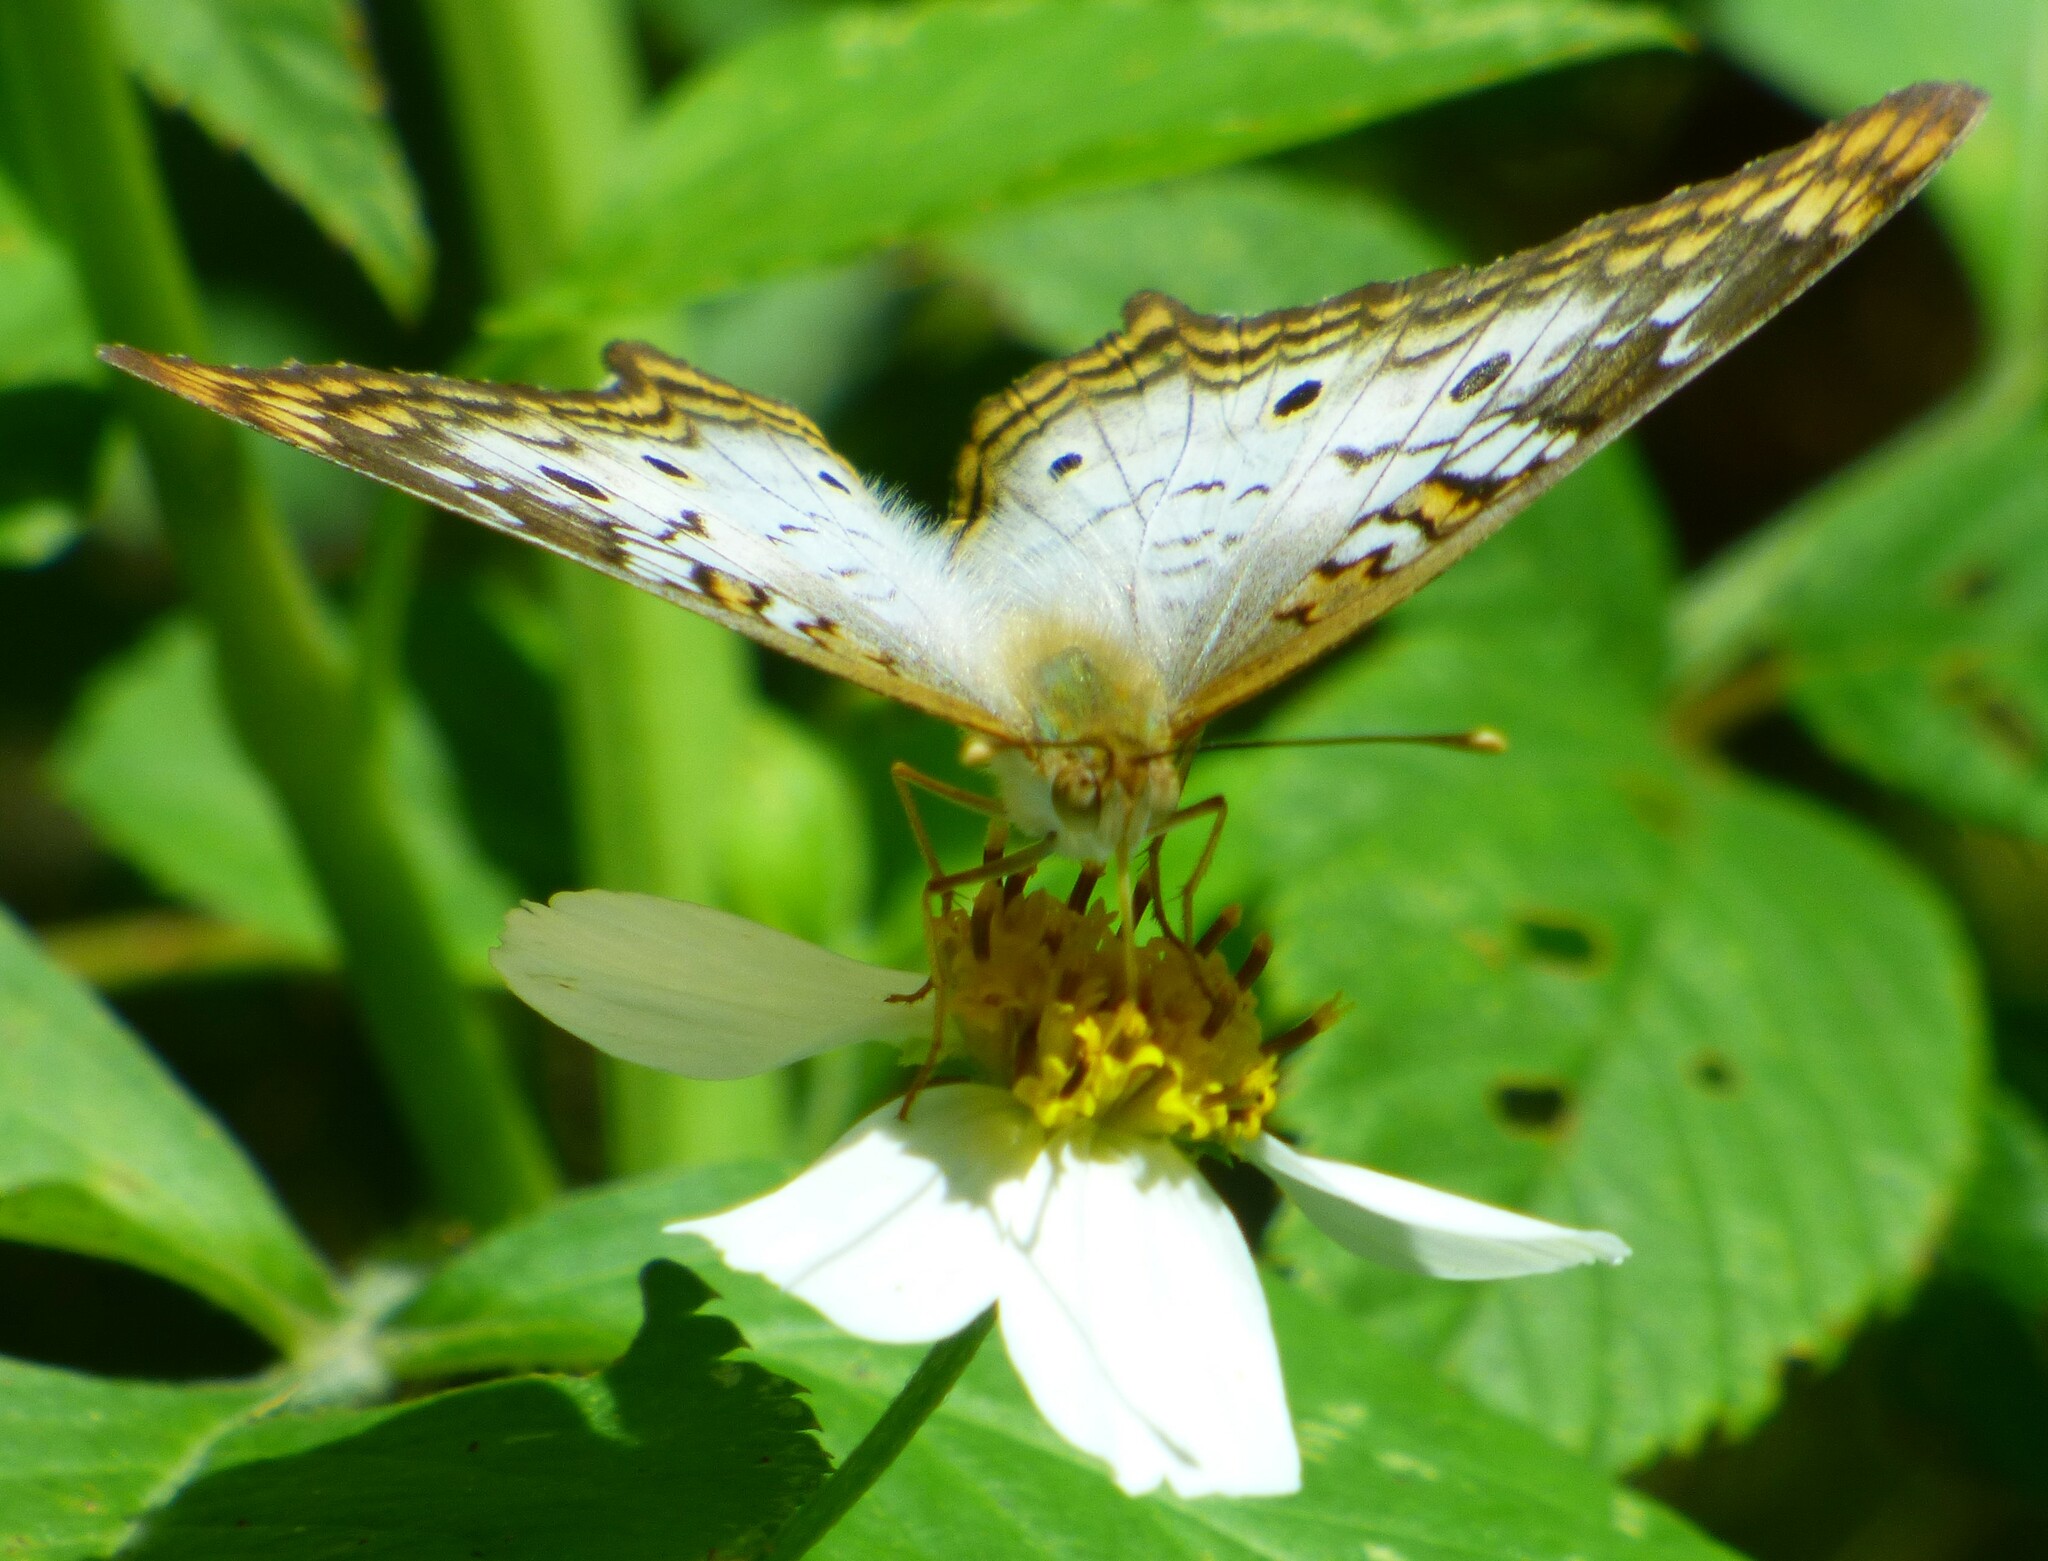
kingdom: Animalia
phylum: Arthropoda
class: Insecta
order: Lepidoptera
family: Nymphalidae
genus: Anartia
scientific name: Anartia jatrophae
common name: White peacock
